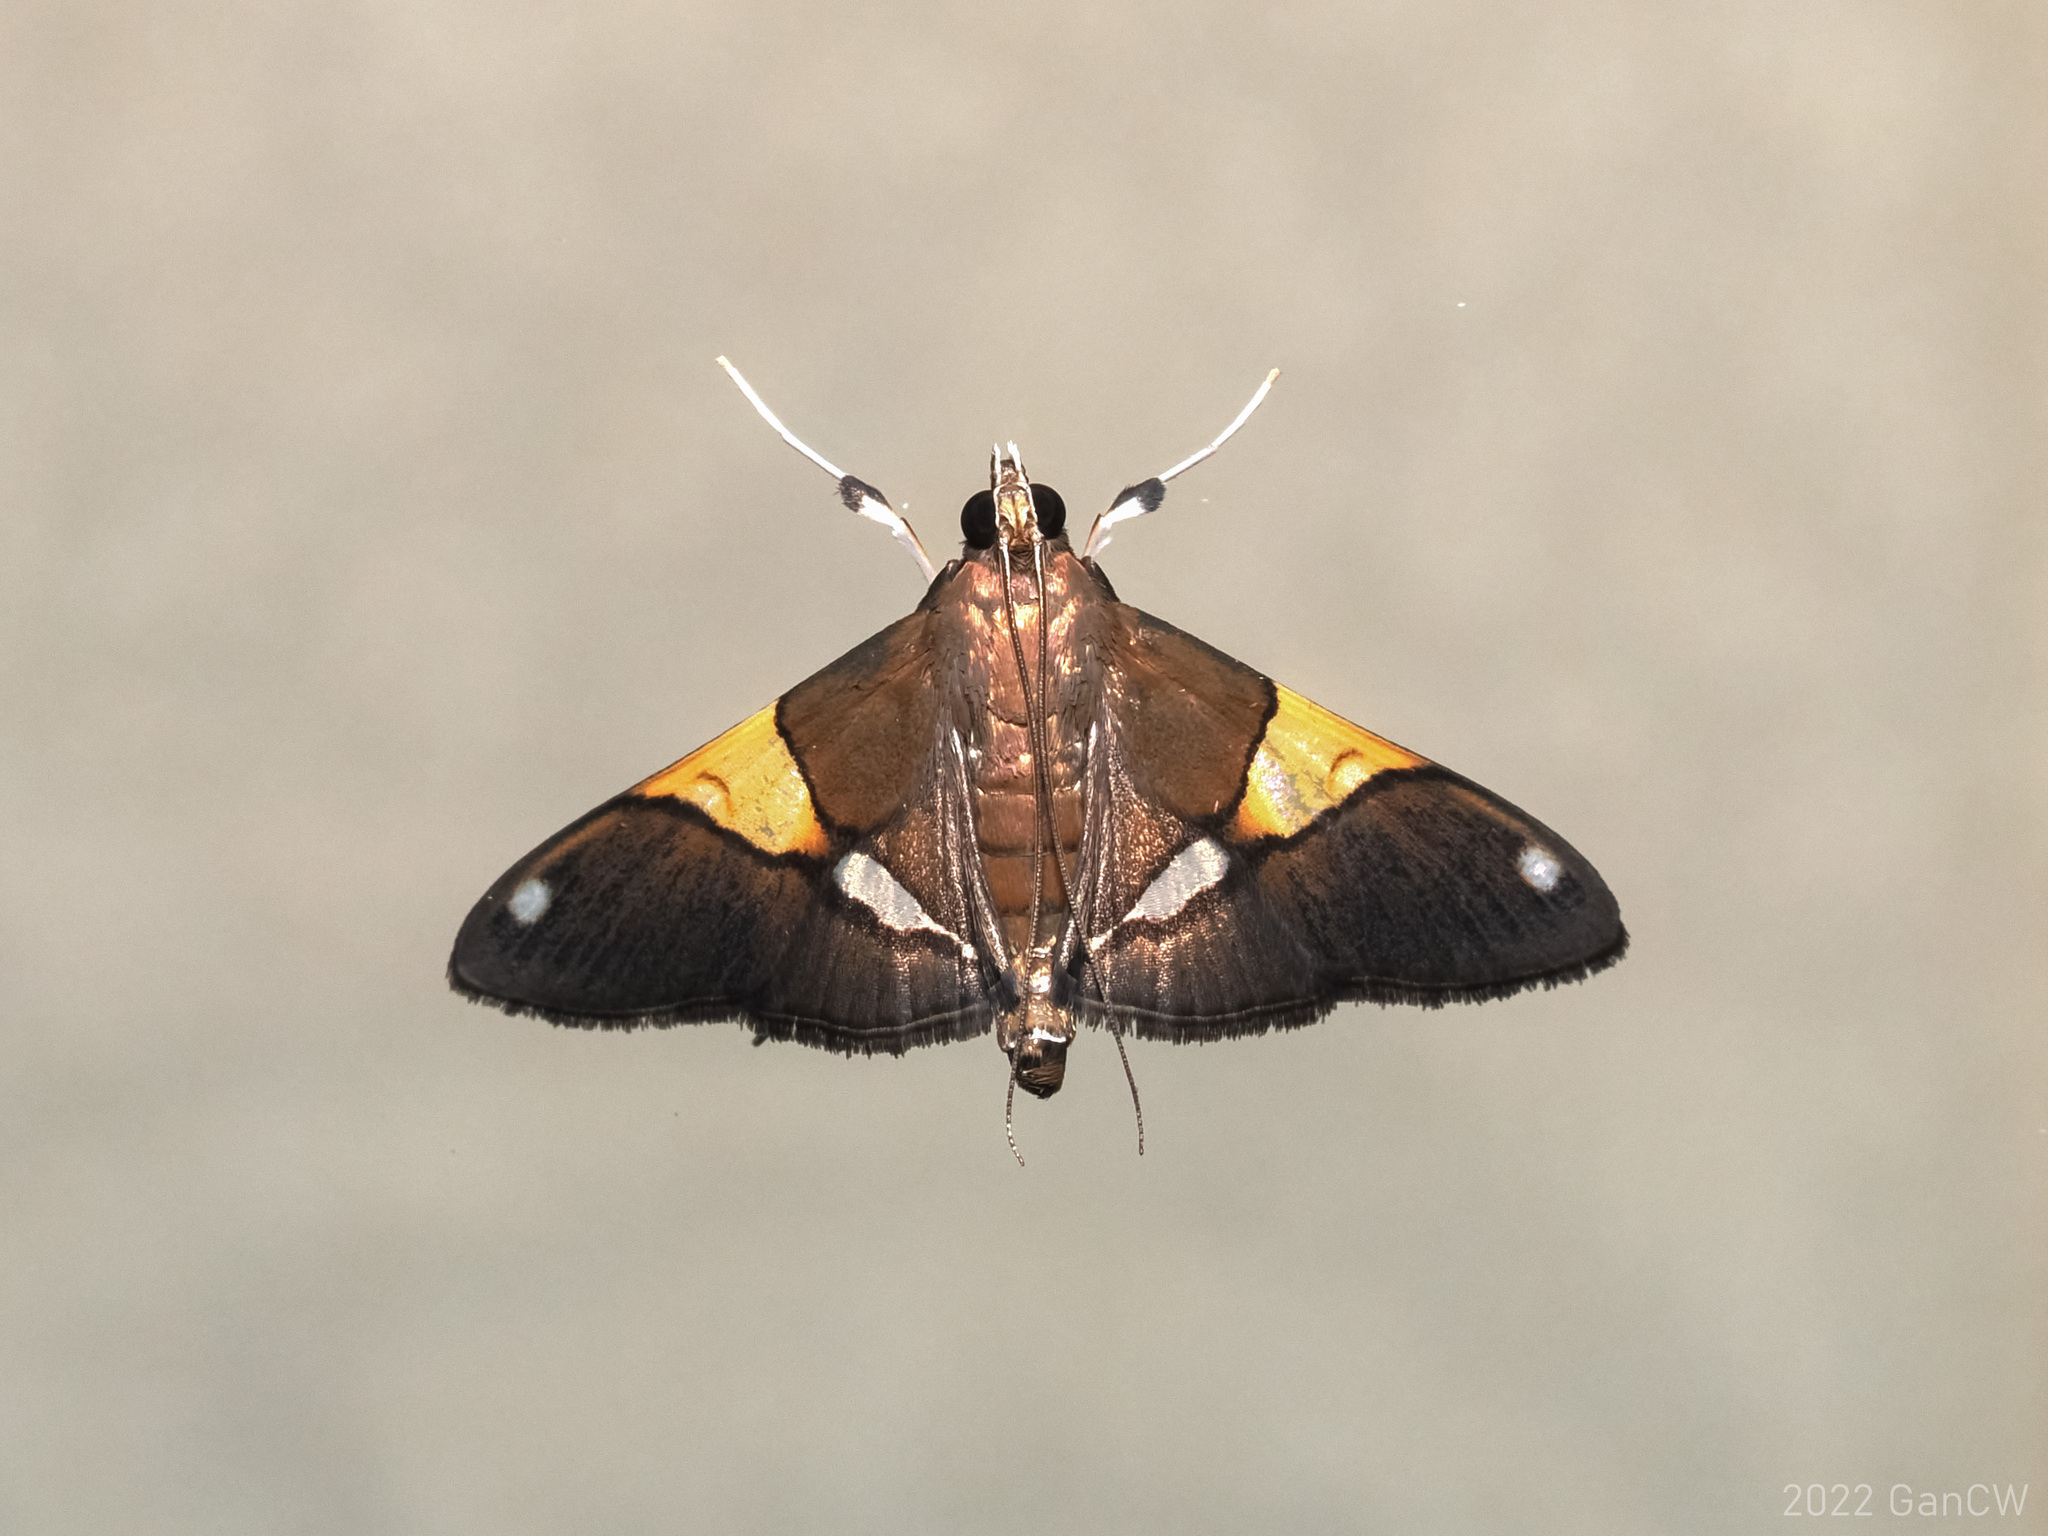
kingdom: Animalia
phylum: Arthropoda
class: Insecta
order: Lepidoptera
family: Crambidae
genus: Heterocnephes
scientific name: Heterocnephes scapulalis
